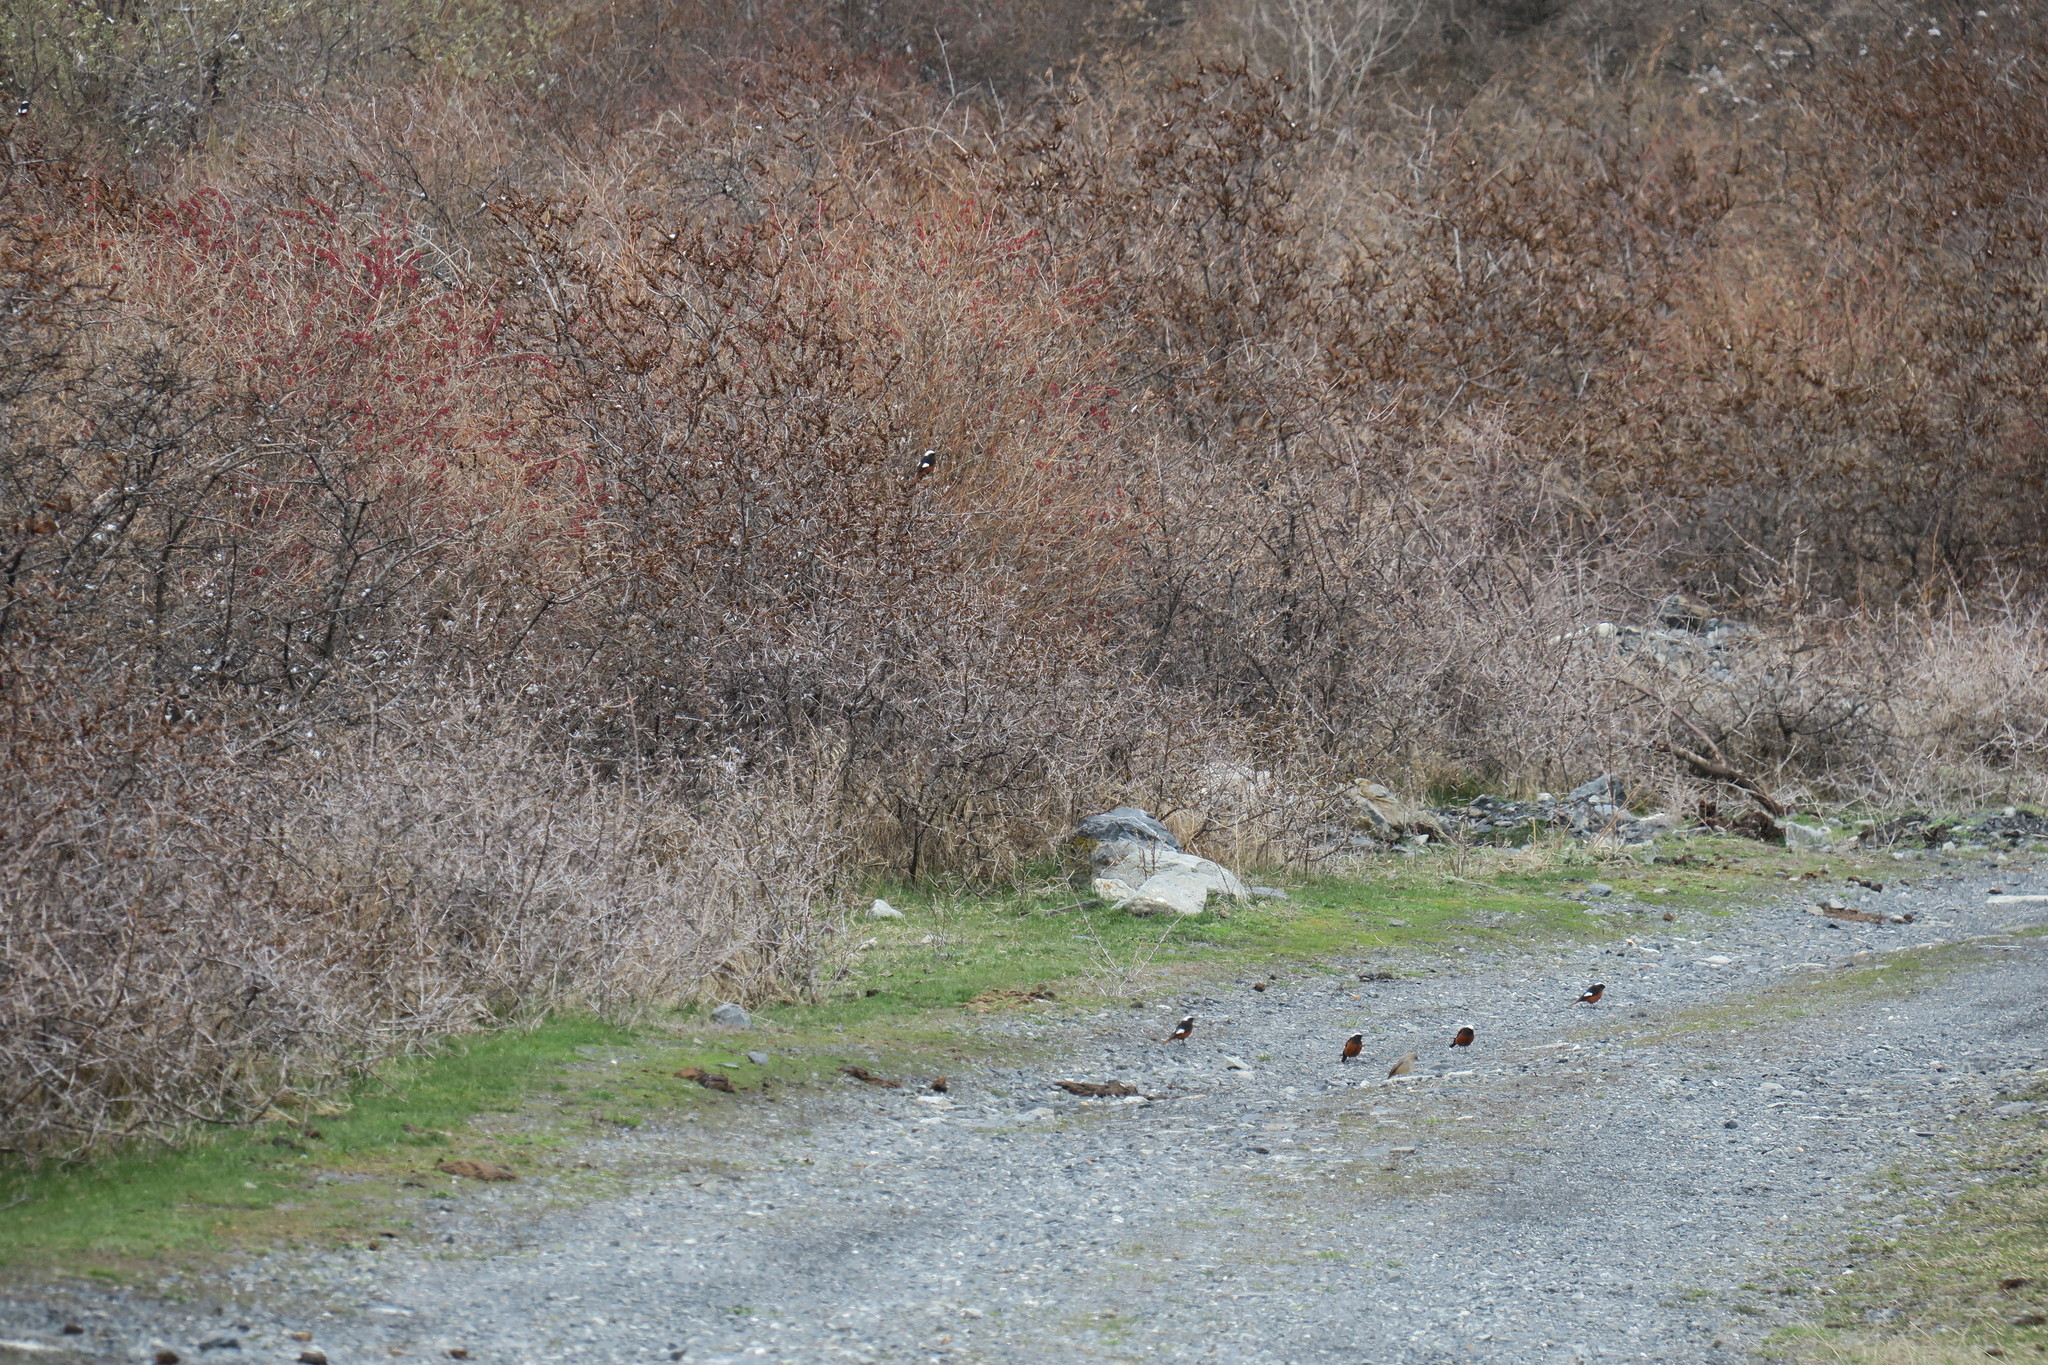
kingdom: Animalia
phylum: Chordata
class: Aves
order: Passeriformes
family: Muscicapidae
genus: Phoenicurus
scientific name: Phoenicurus erythrogastrus
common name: Güldenstädt's redstart
